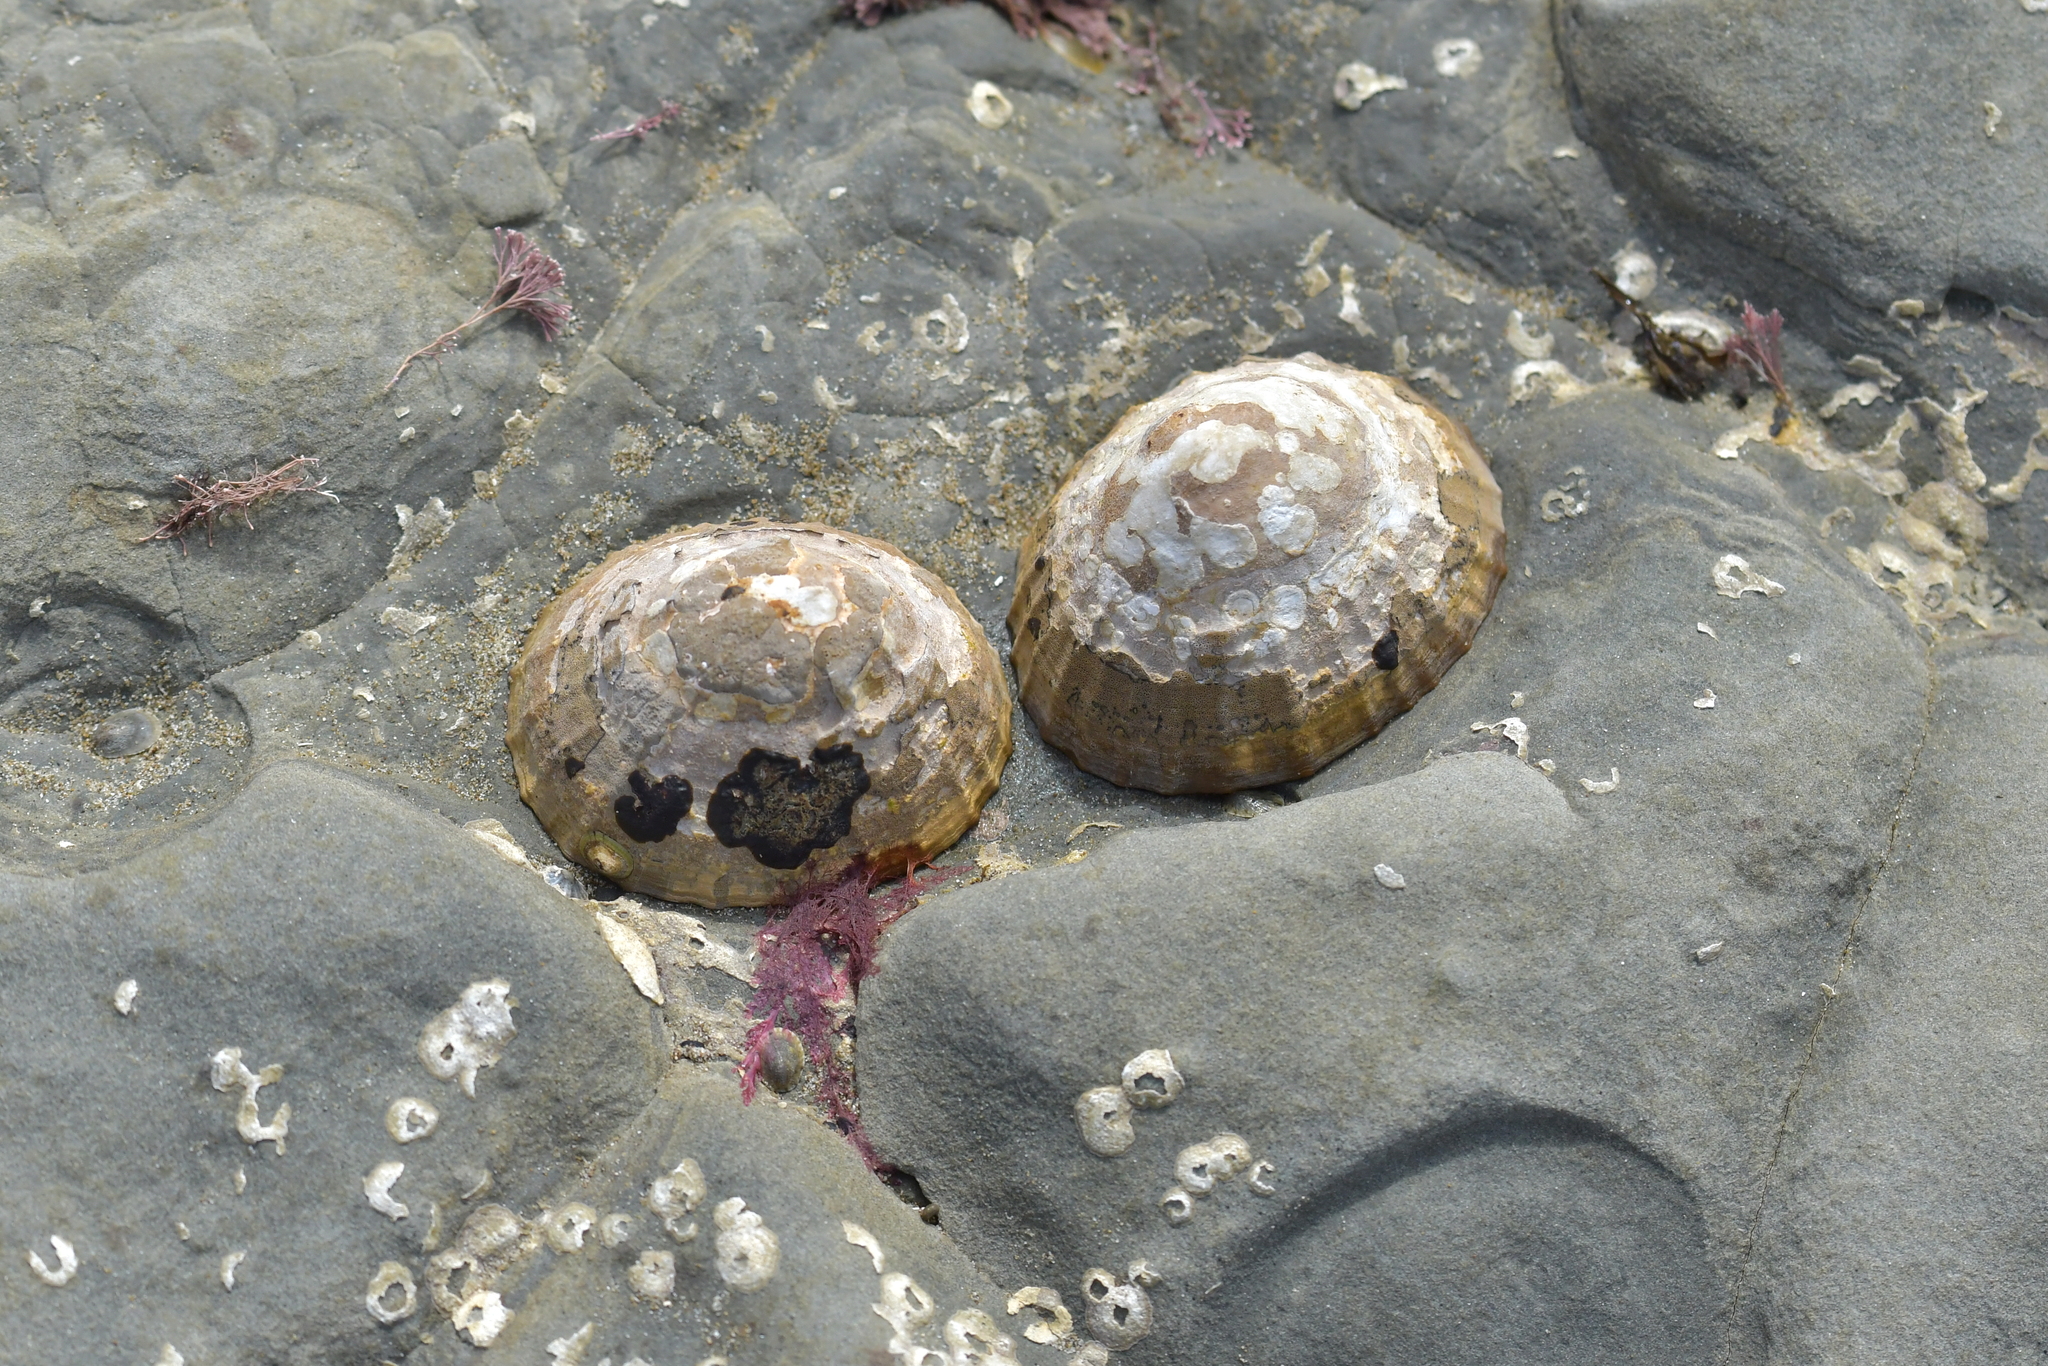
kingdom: Animalia
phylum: Mollusca
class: Gastropoda
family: Nacellidae
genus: Cellana
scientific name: Cellana radians
